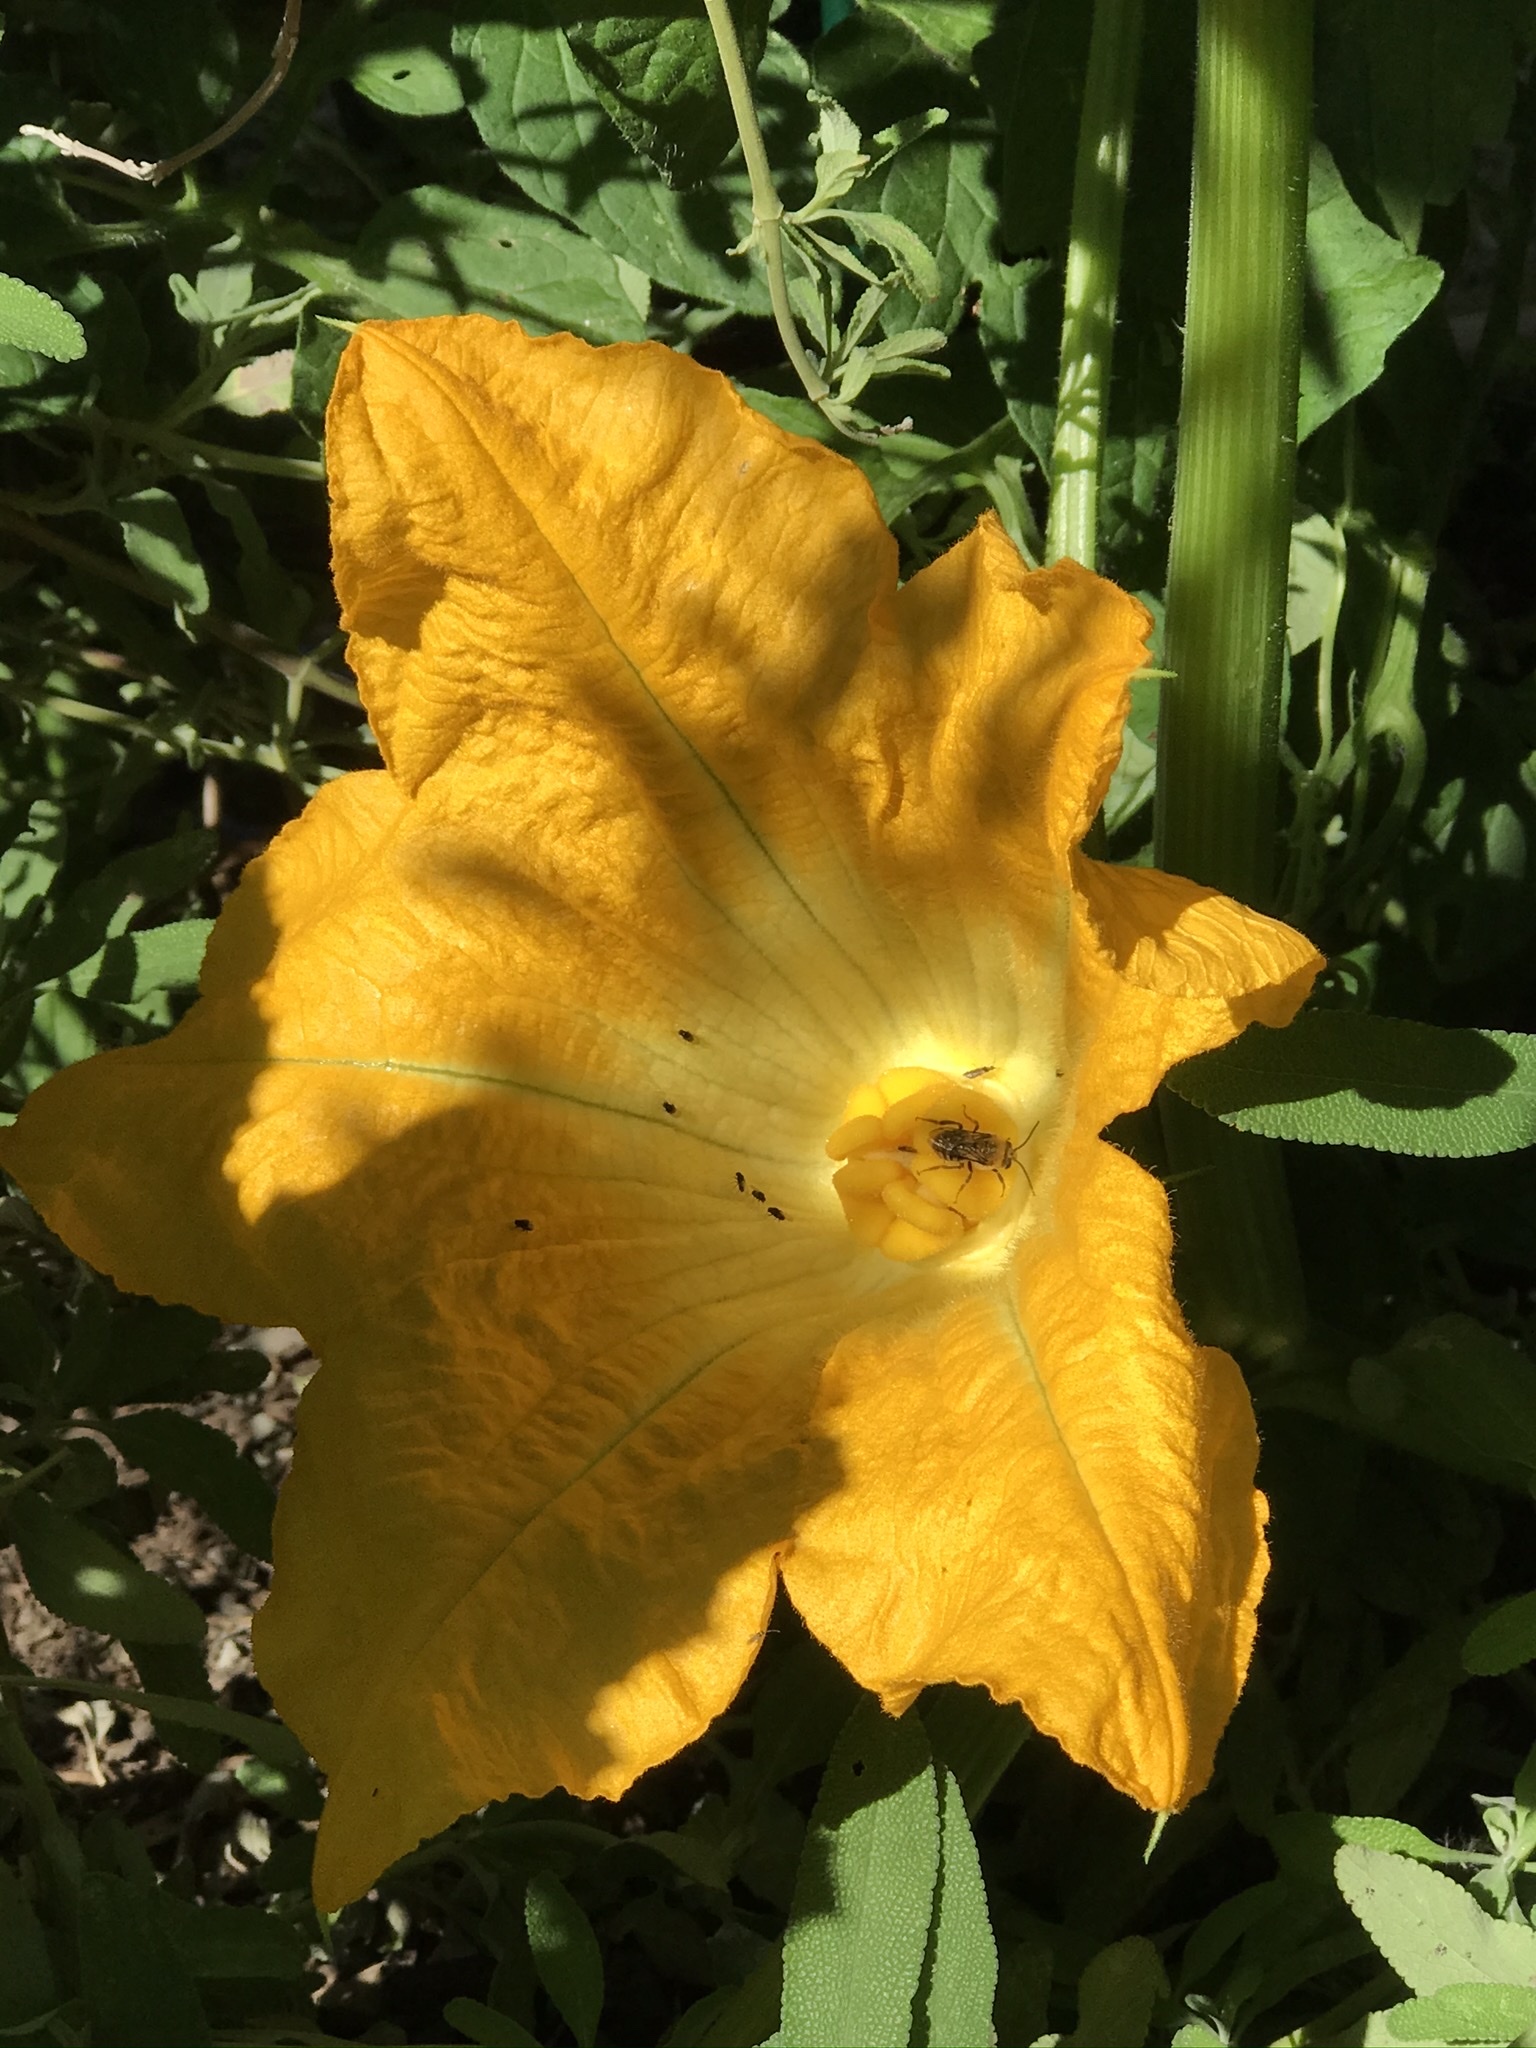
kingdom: Animalia
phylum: Arthropoda
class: Insecta
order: Hymenoptera
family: Apidae
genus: Peponapis
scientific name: Peponapis pruinosa
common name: Pruinose squash bee
